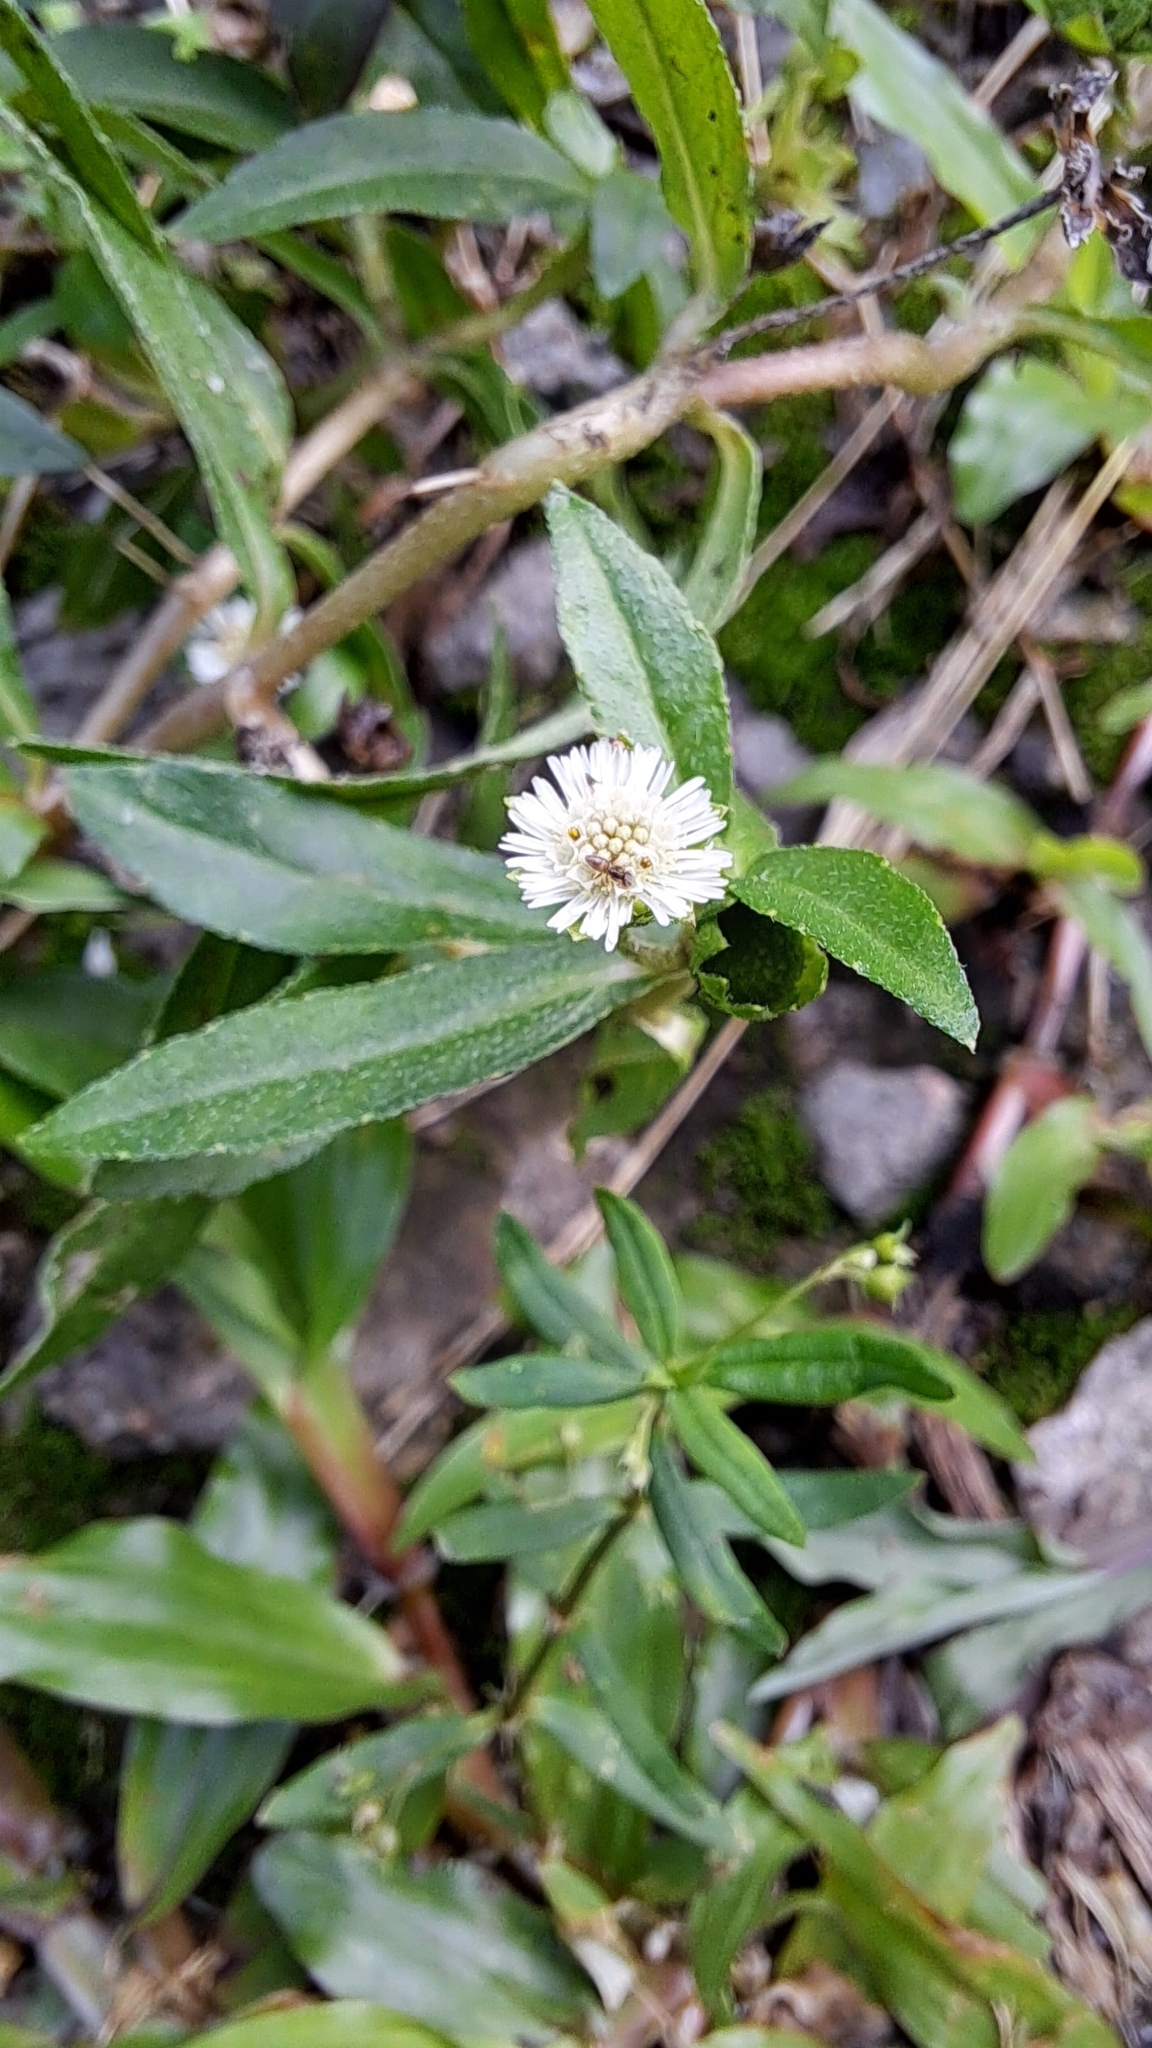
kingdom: Plantae
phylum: Tracheophyta
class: Magnoliopsida
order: Asterales
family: Asteraceae
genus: Eclipta
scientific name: Eclipta prostrata
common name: False daisy
